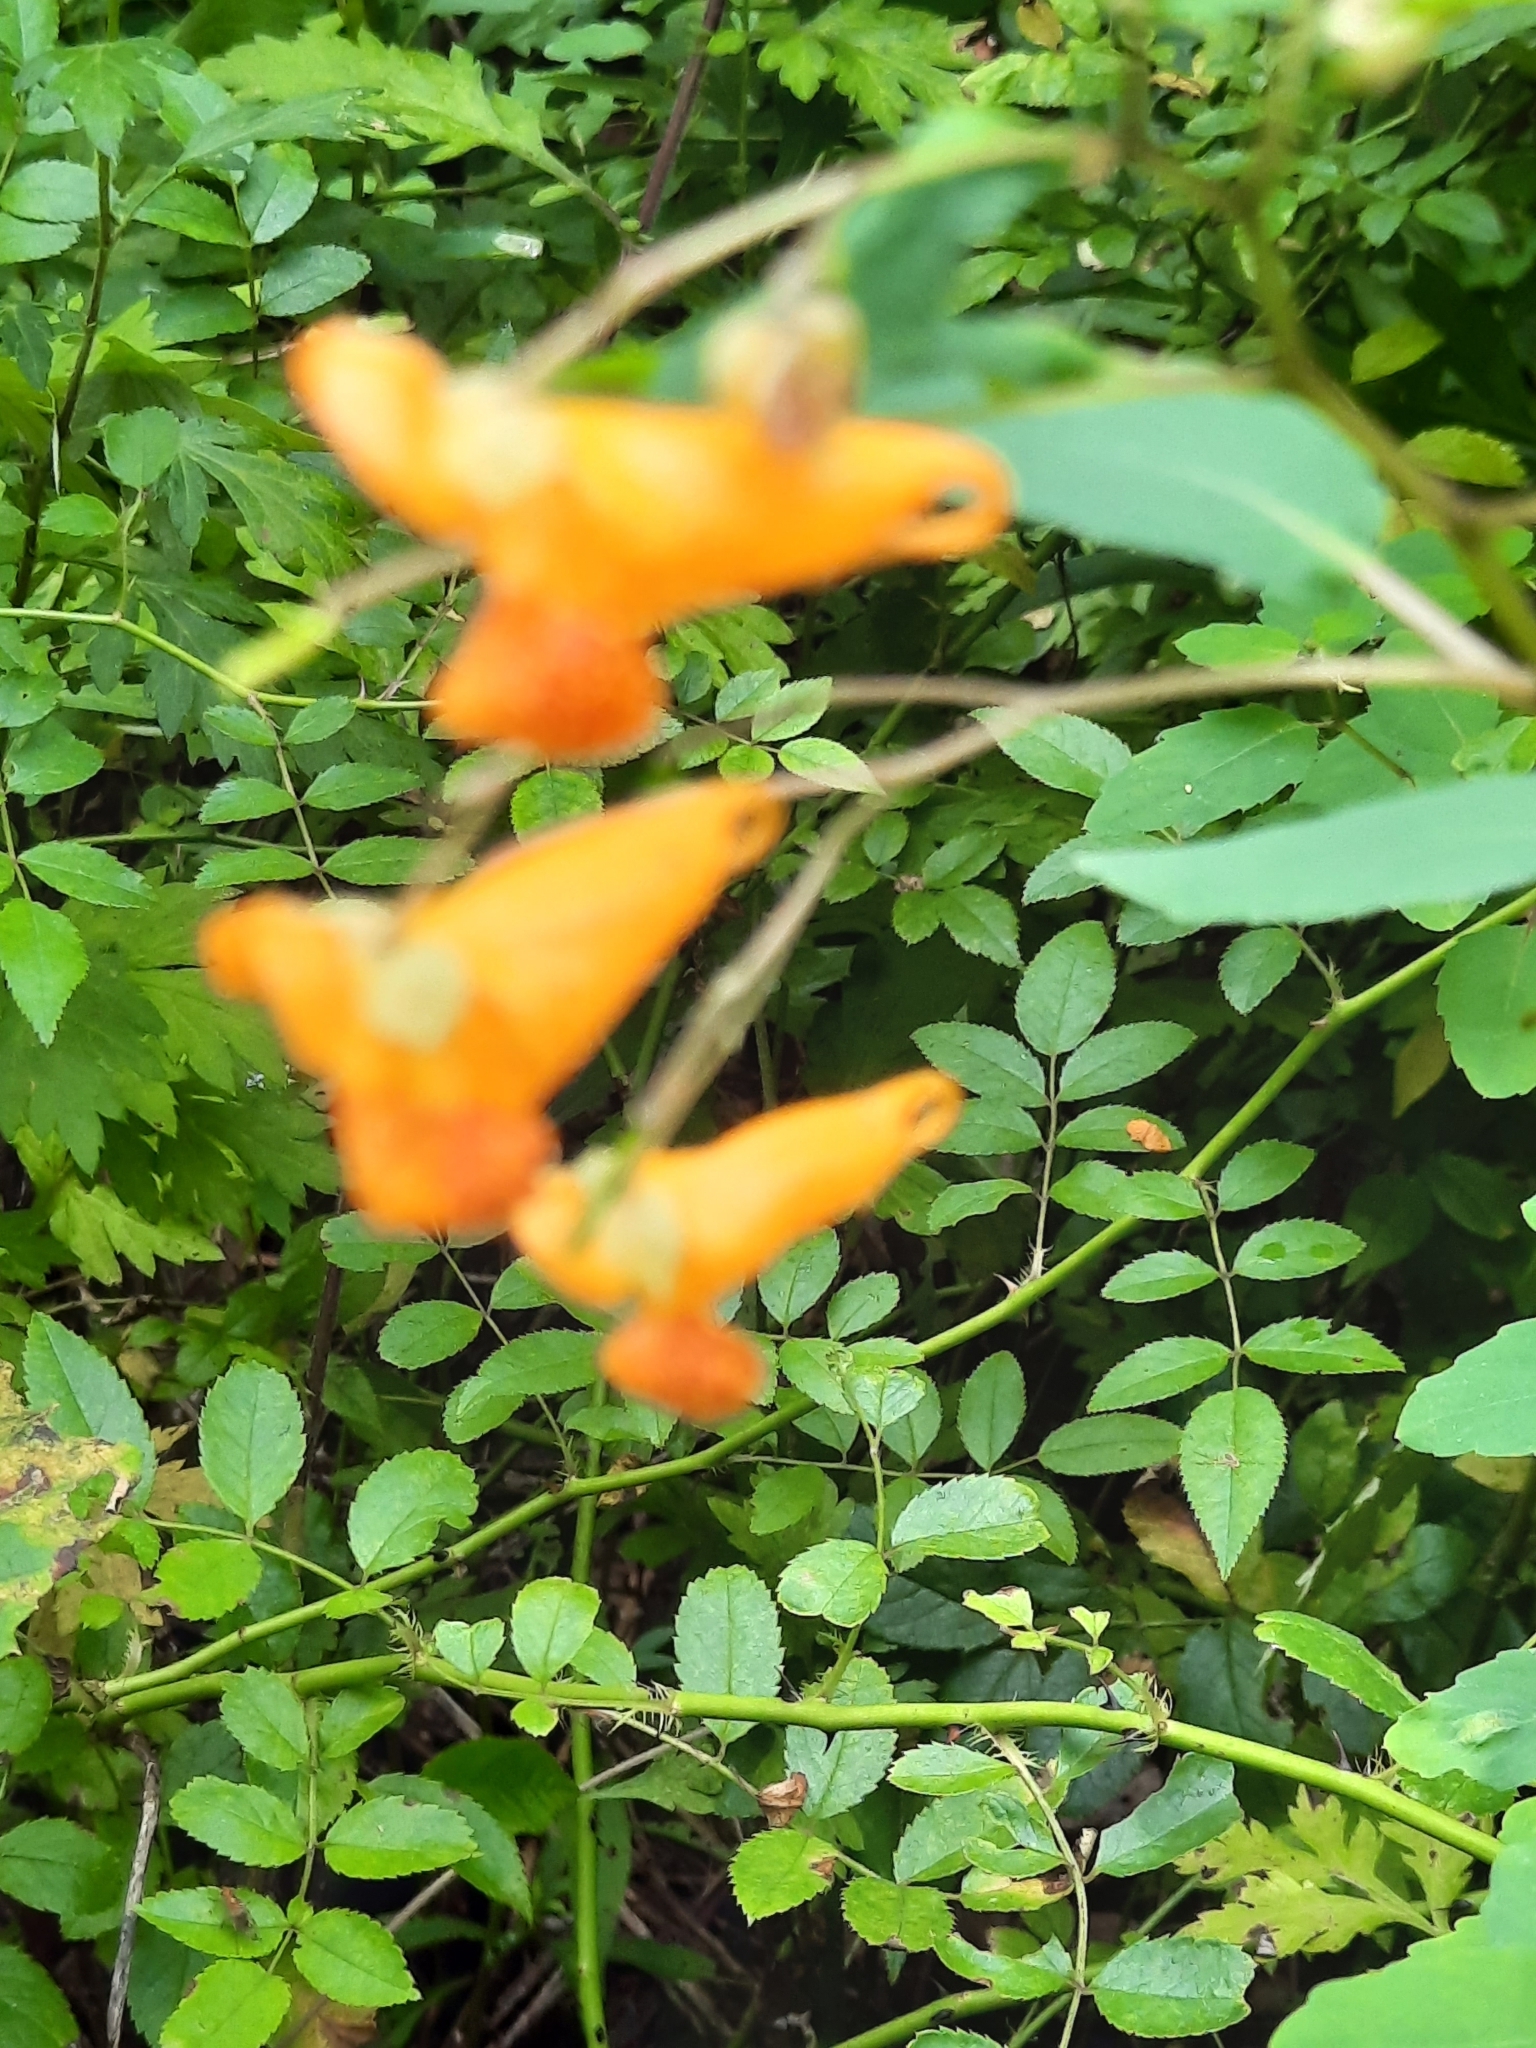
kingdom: Plantae
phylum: Tracheophyta
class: Magnoliopsida
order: Ericales
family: Balsaminaceae
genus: Impatiens
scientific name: Impatiens capensis
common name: Orange balsam
